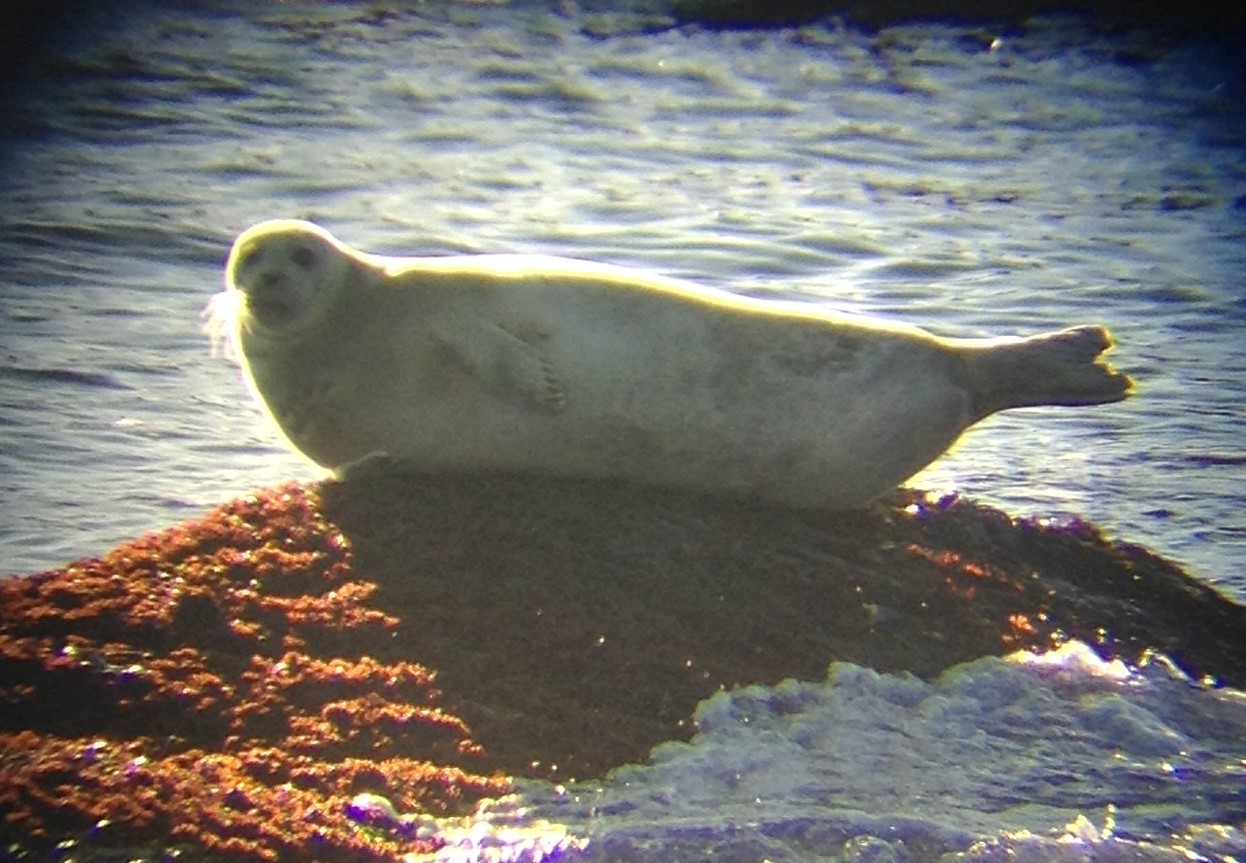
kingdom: Animalia
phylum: Chordata
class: Mammalia
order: Carnivora
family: Phocidae
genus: Phoca
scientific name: Phoca vitulina
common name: Harbor seal
